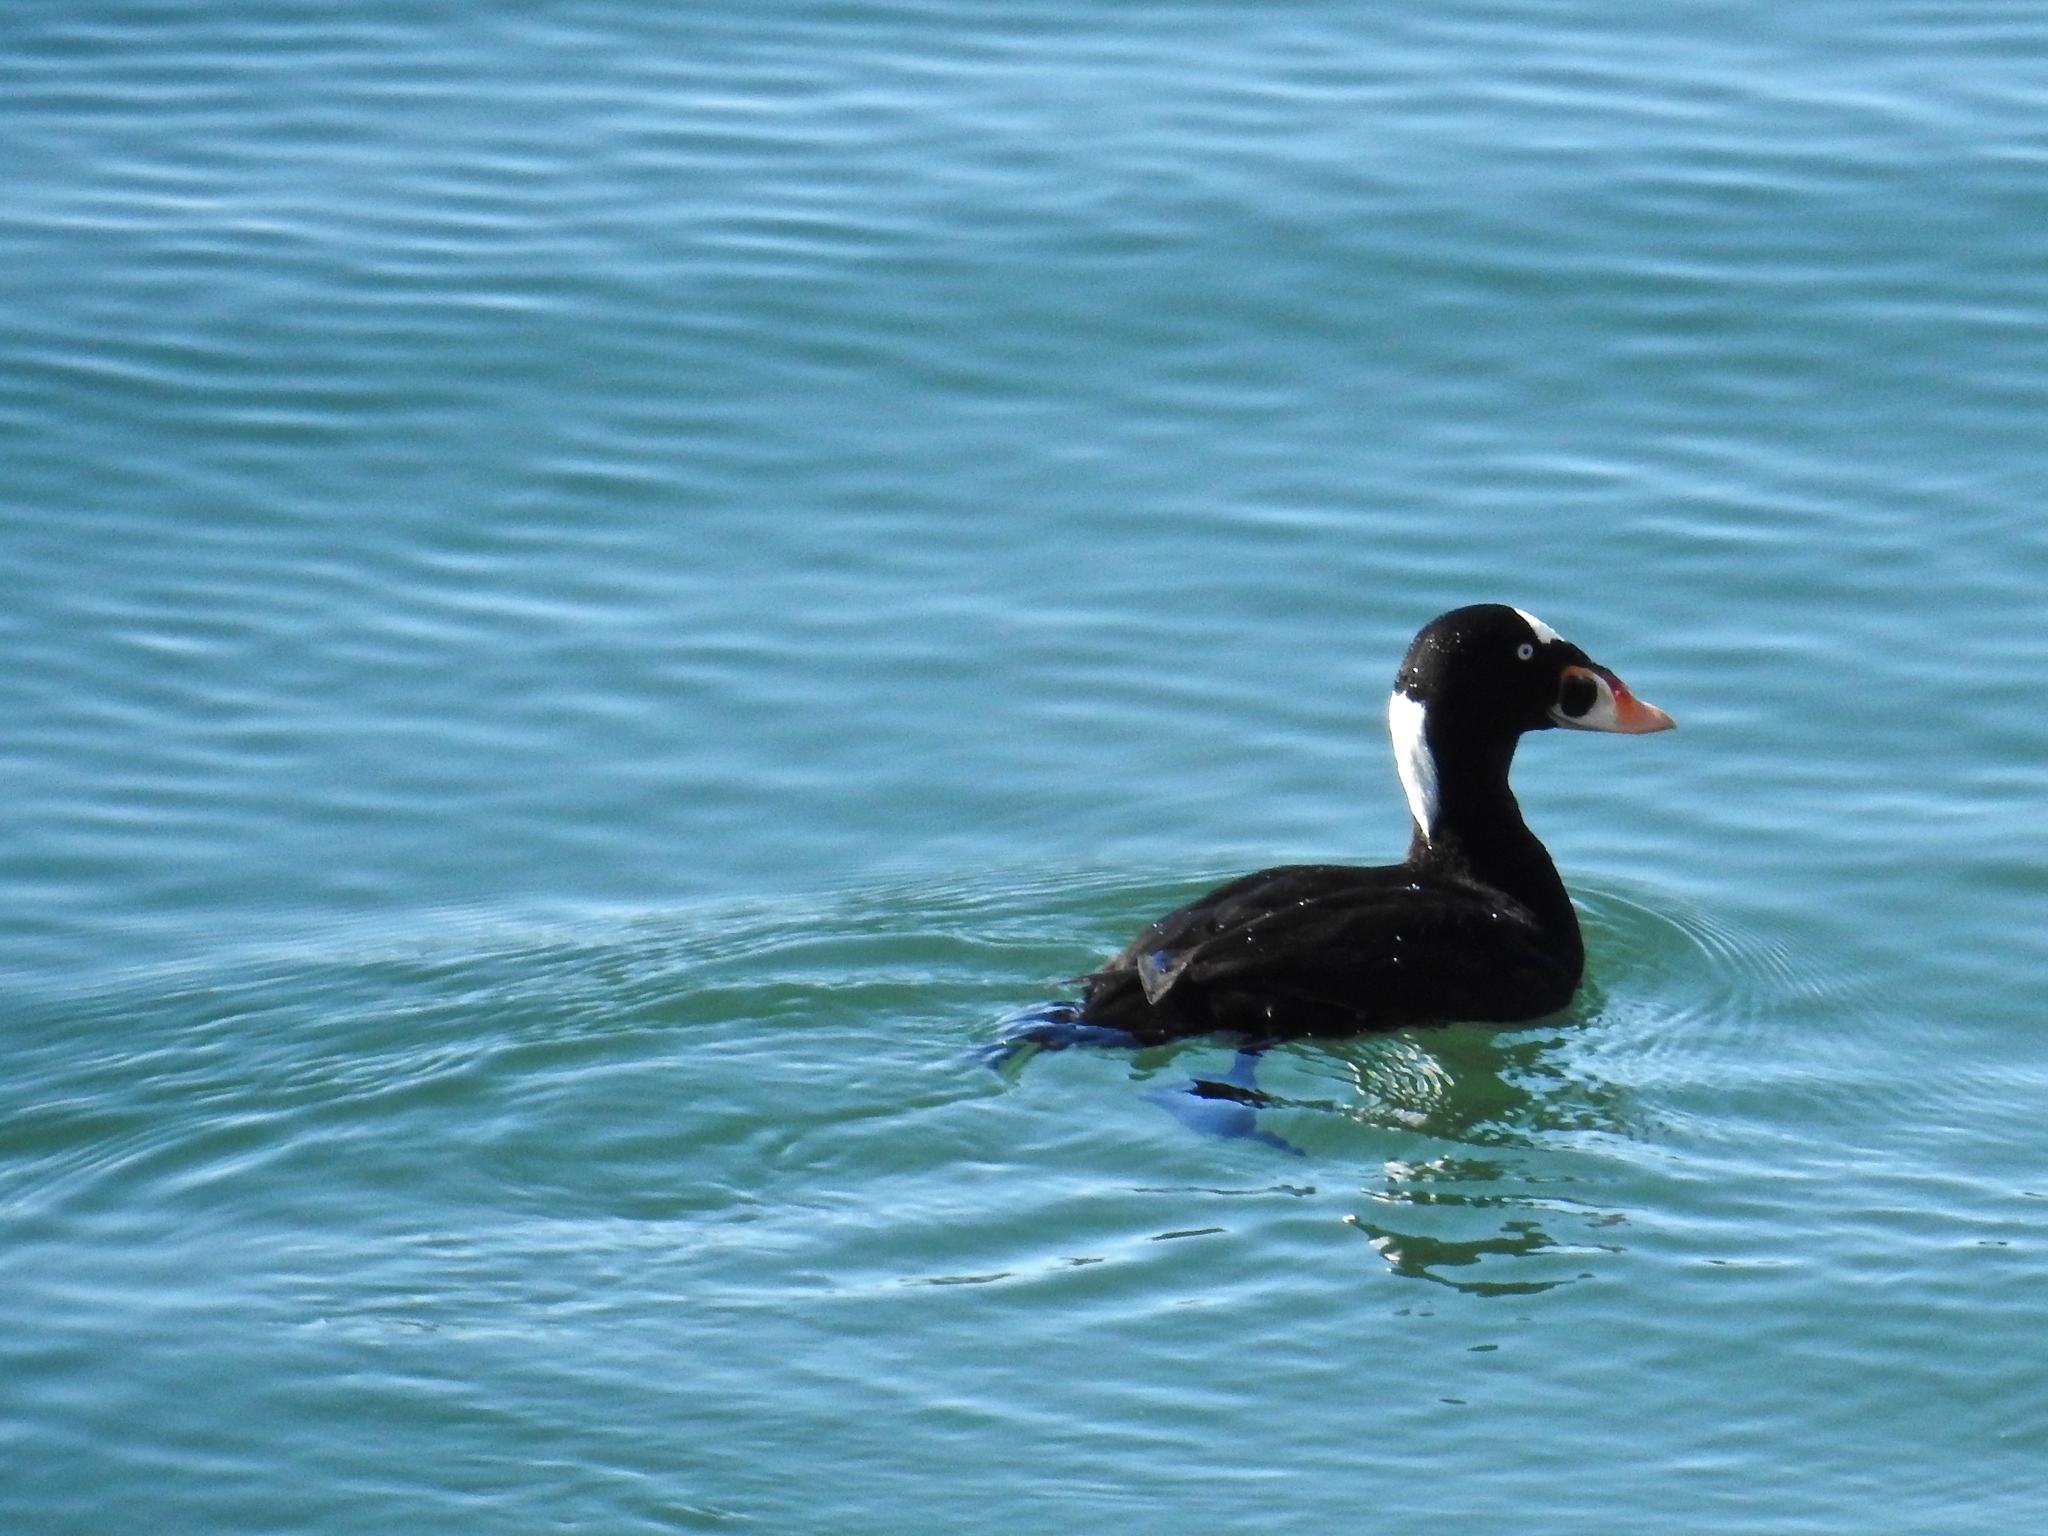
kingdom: Animalia
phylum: Chordata
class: Aves
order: Anseriformes
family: Anatidae
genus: Melanitta
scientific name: Melanitta perspicillata
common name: Surf scoter
